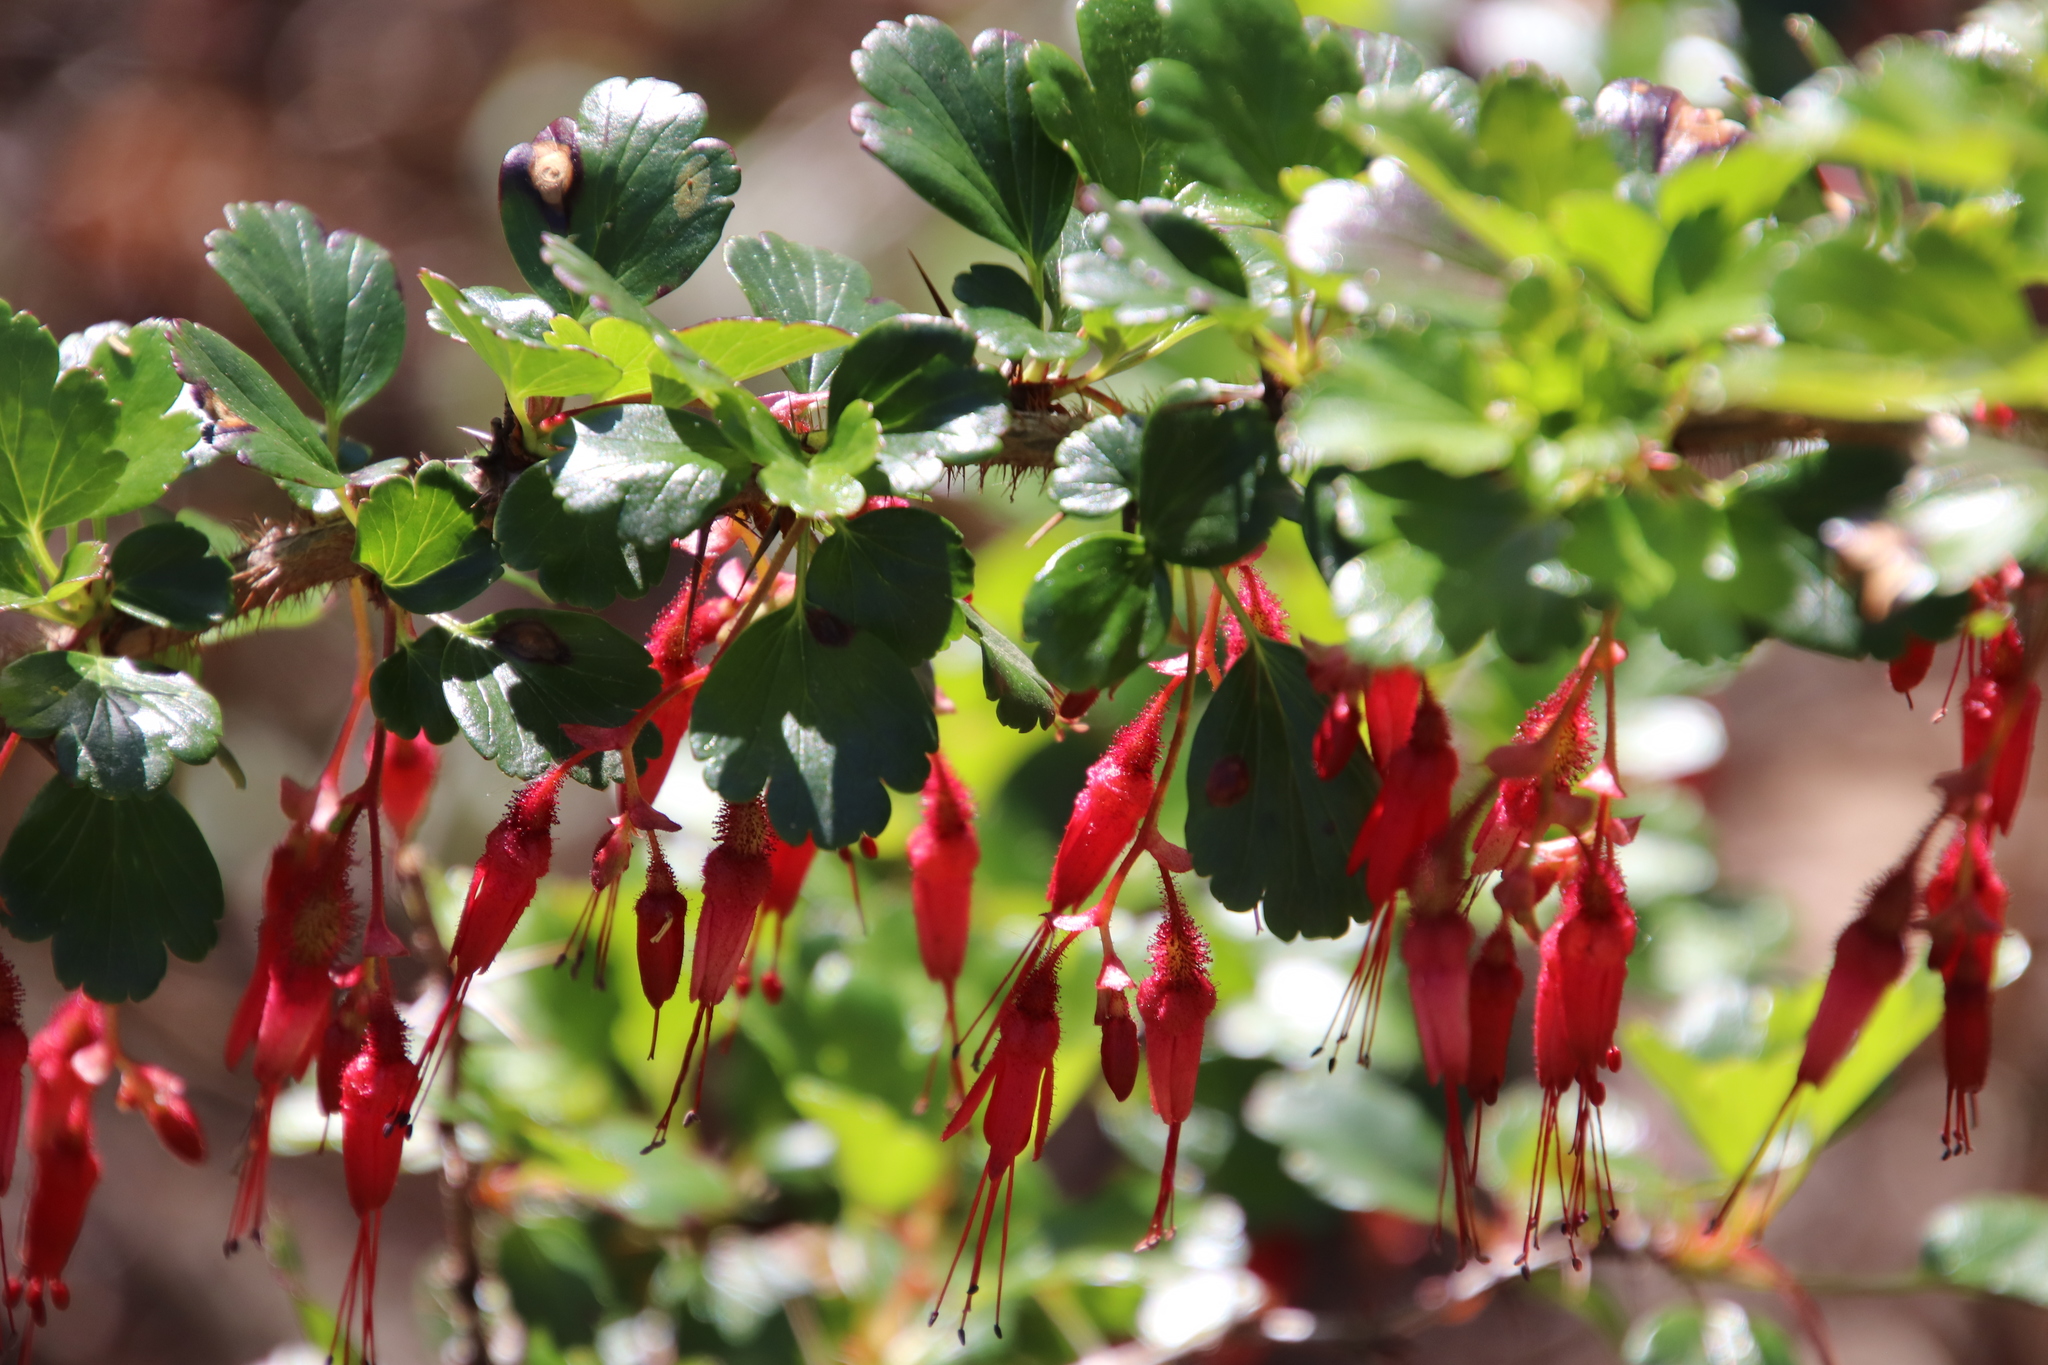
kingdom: Plantae
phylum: Tracheophyta
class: Magnoliopsida
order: Saxifragales
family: Grossulariaceae
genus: Ribes
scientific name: Ribes speciosum
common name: Fuchsia-flower gooseberry
